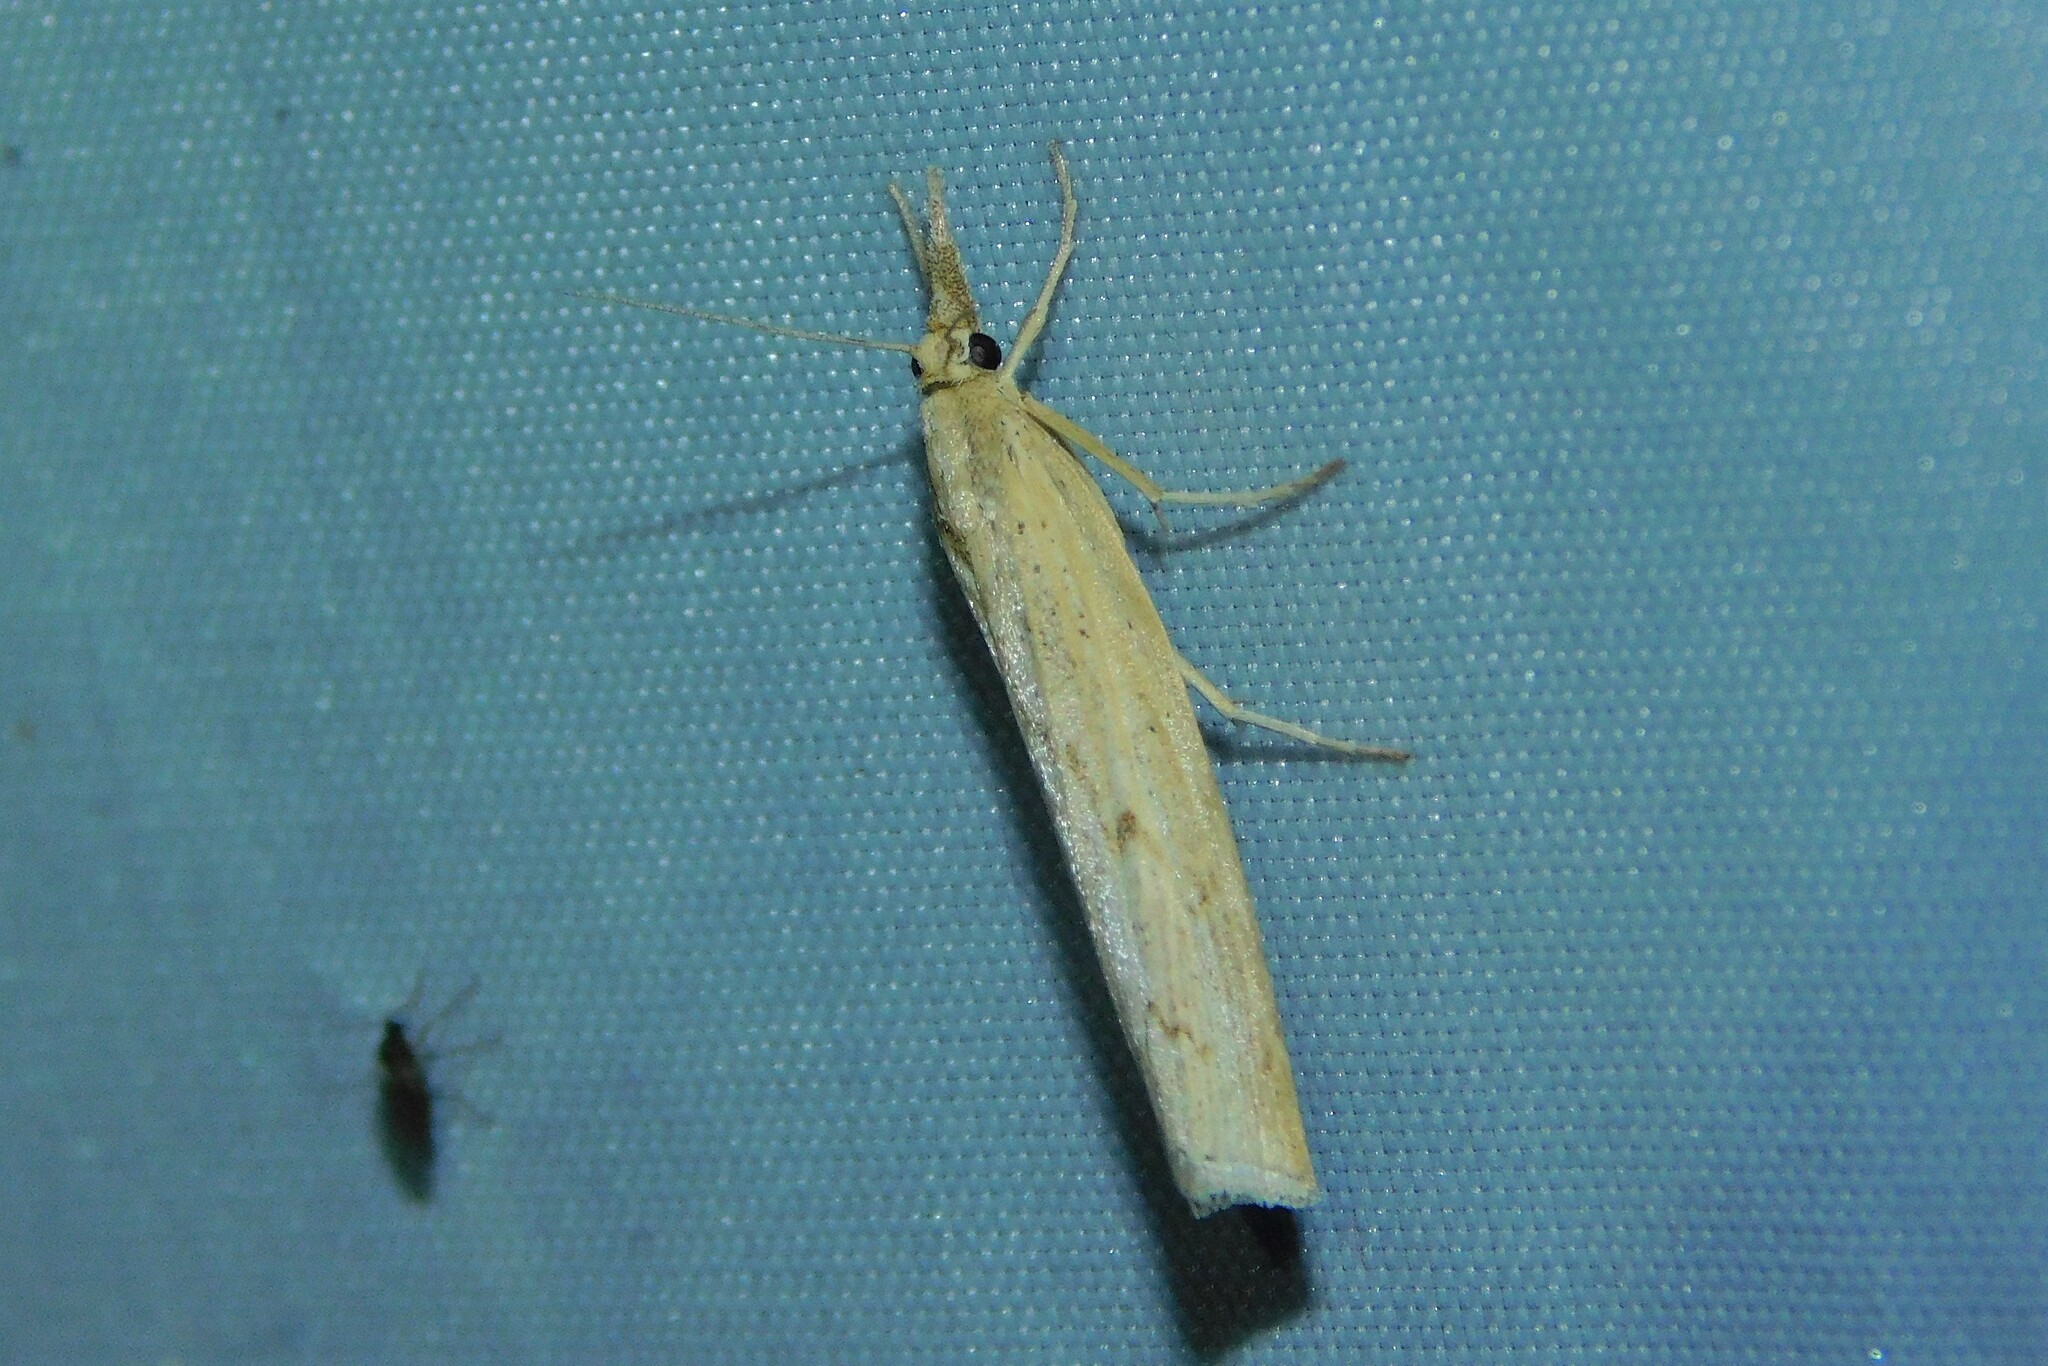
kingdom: Animalia
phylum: Arthropoda
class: Insecta
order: Lepidoptera
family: Crambidae
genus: Pediasia
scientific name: Pediasia contaminella
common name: Waste grass-veneer
